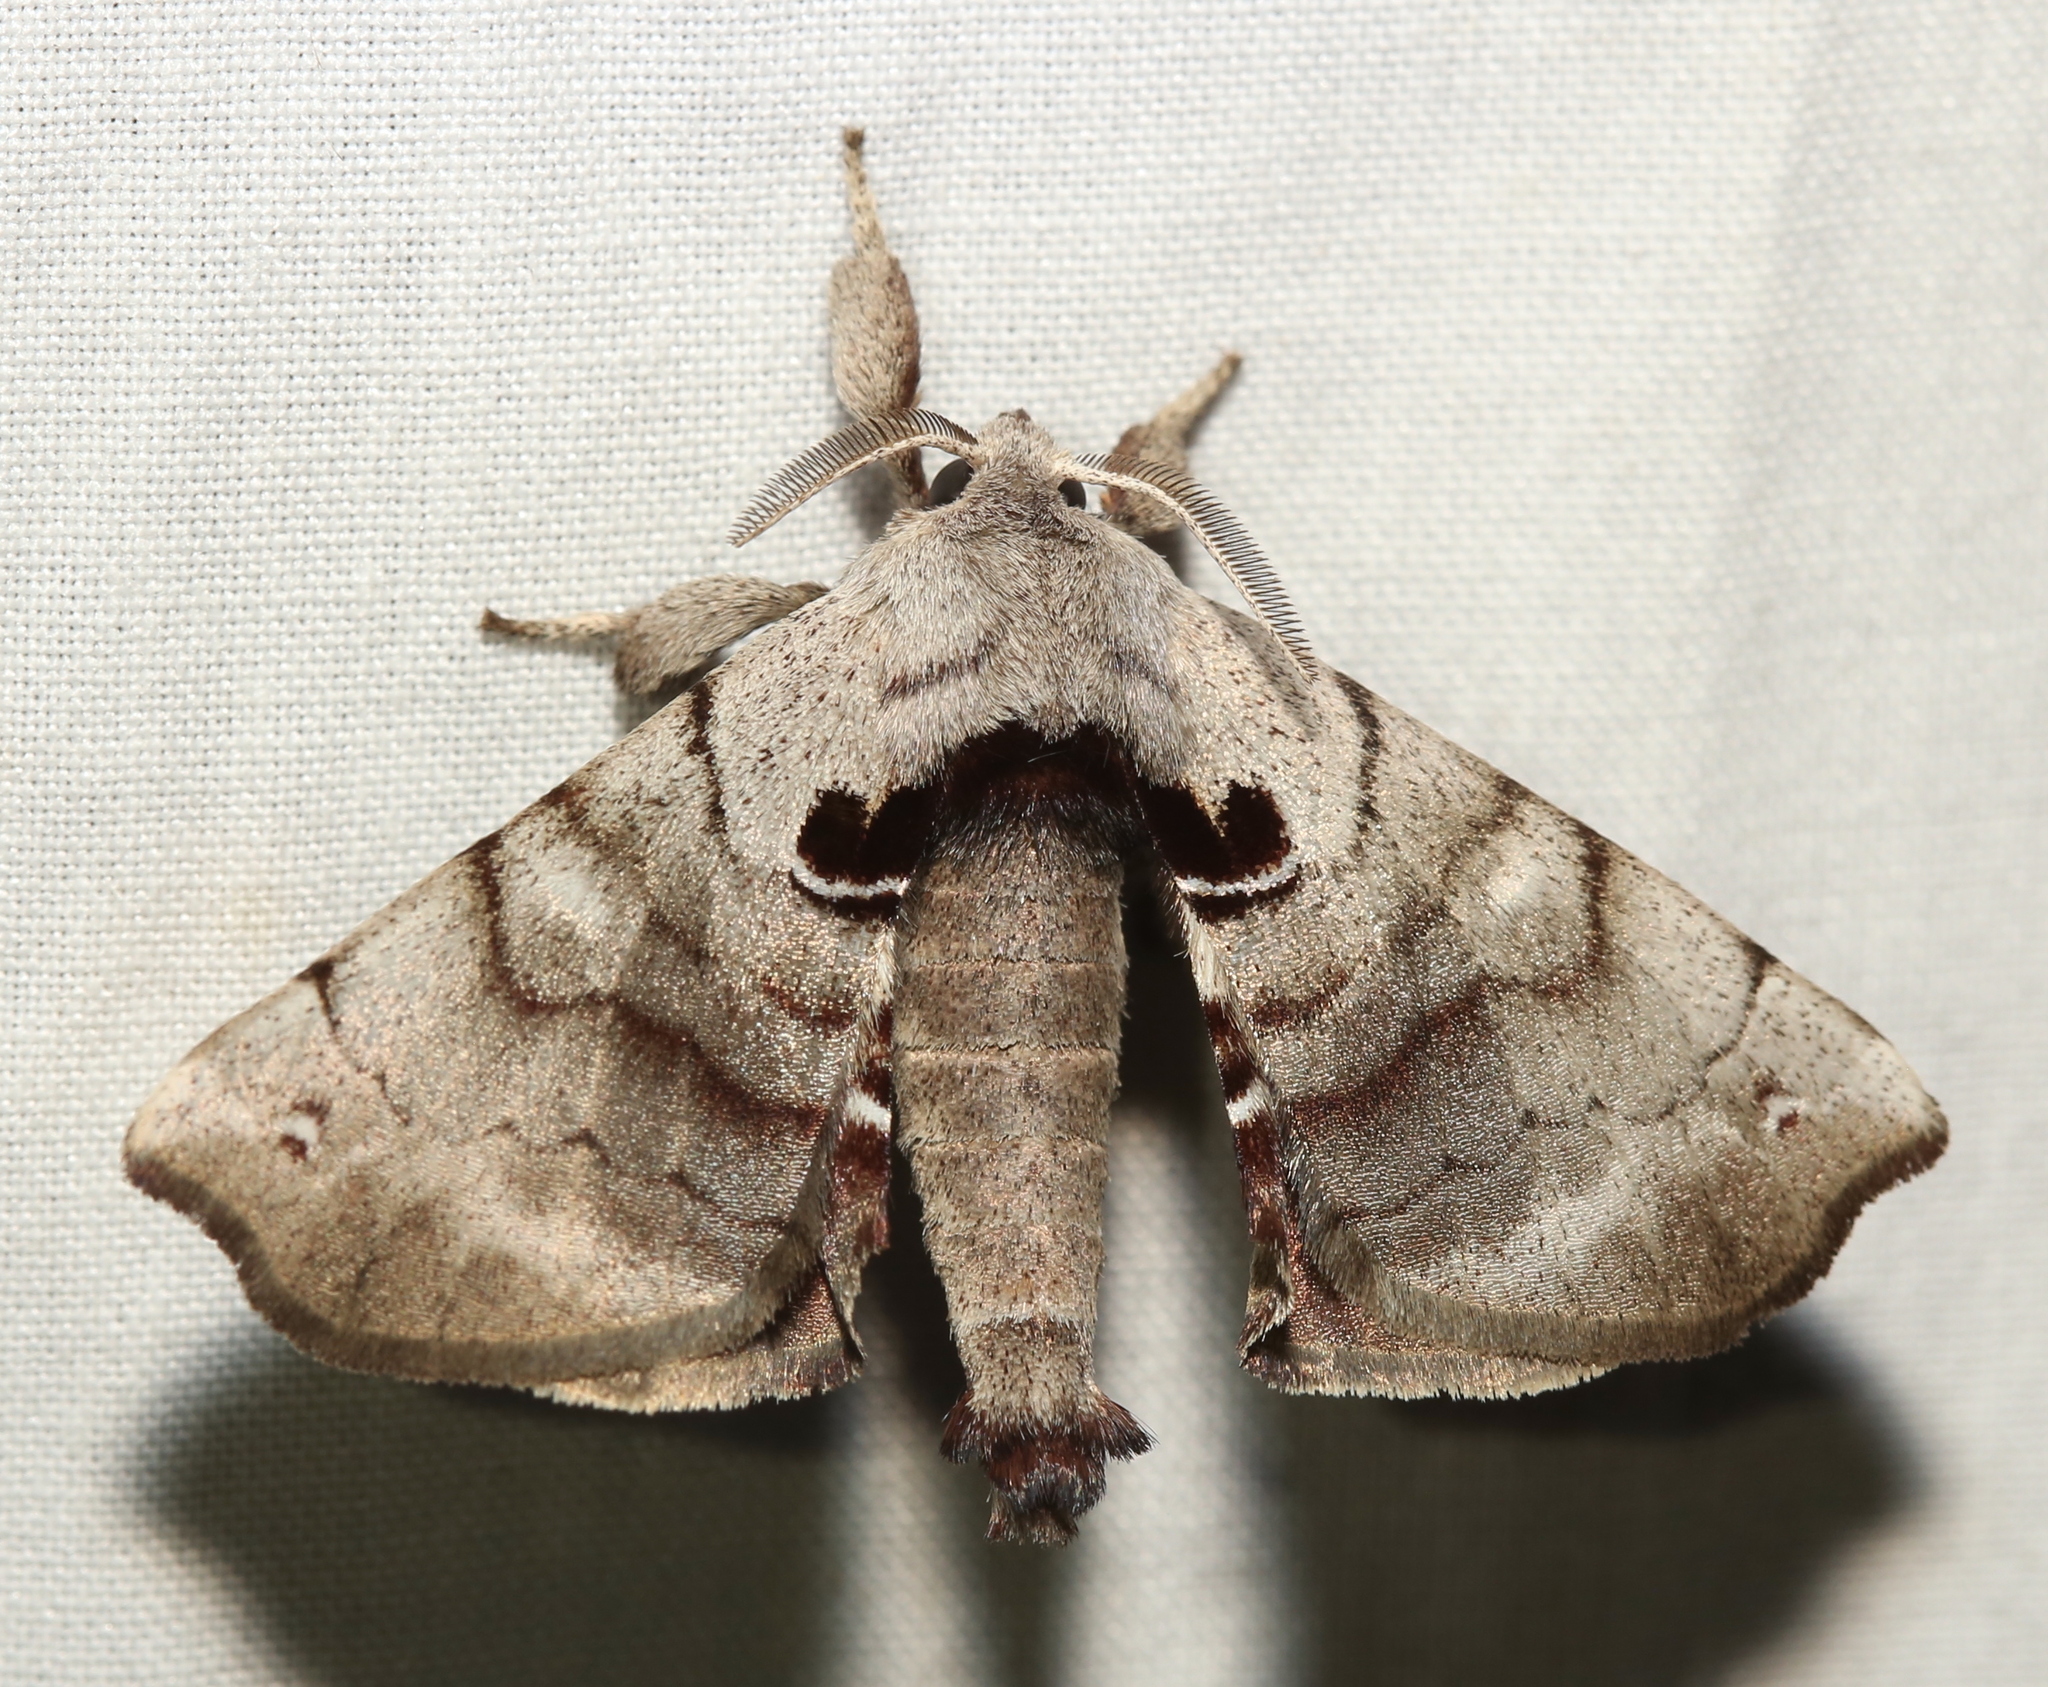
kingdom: Animalia
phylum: Arthropoda
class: Insecta
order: Lepidoptera
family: Apatelodidae
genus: Hygrochroa
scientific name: Hygrochroa Apatelodes torrefacta
